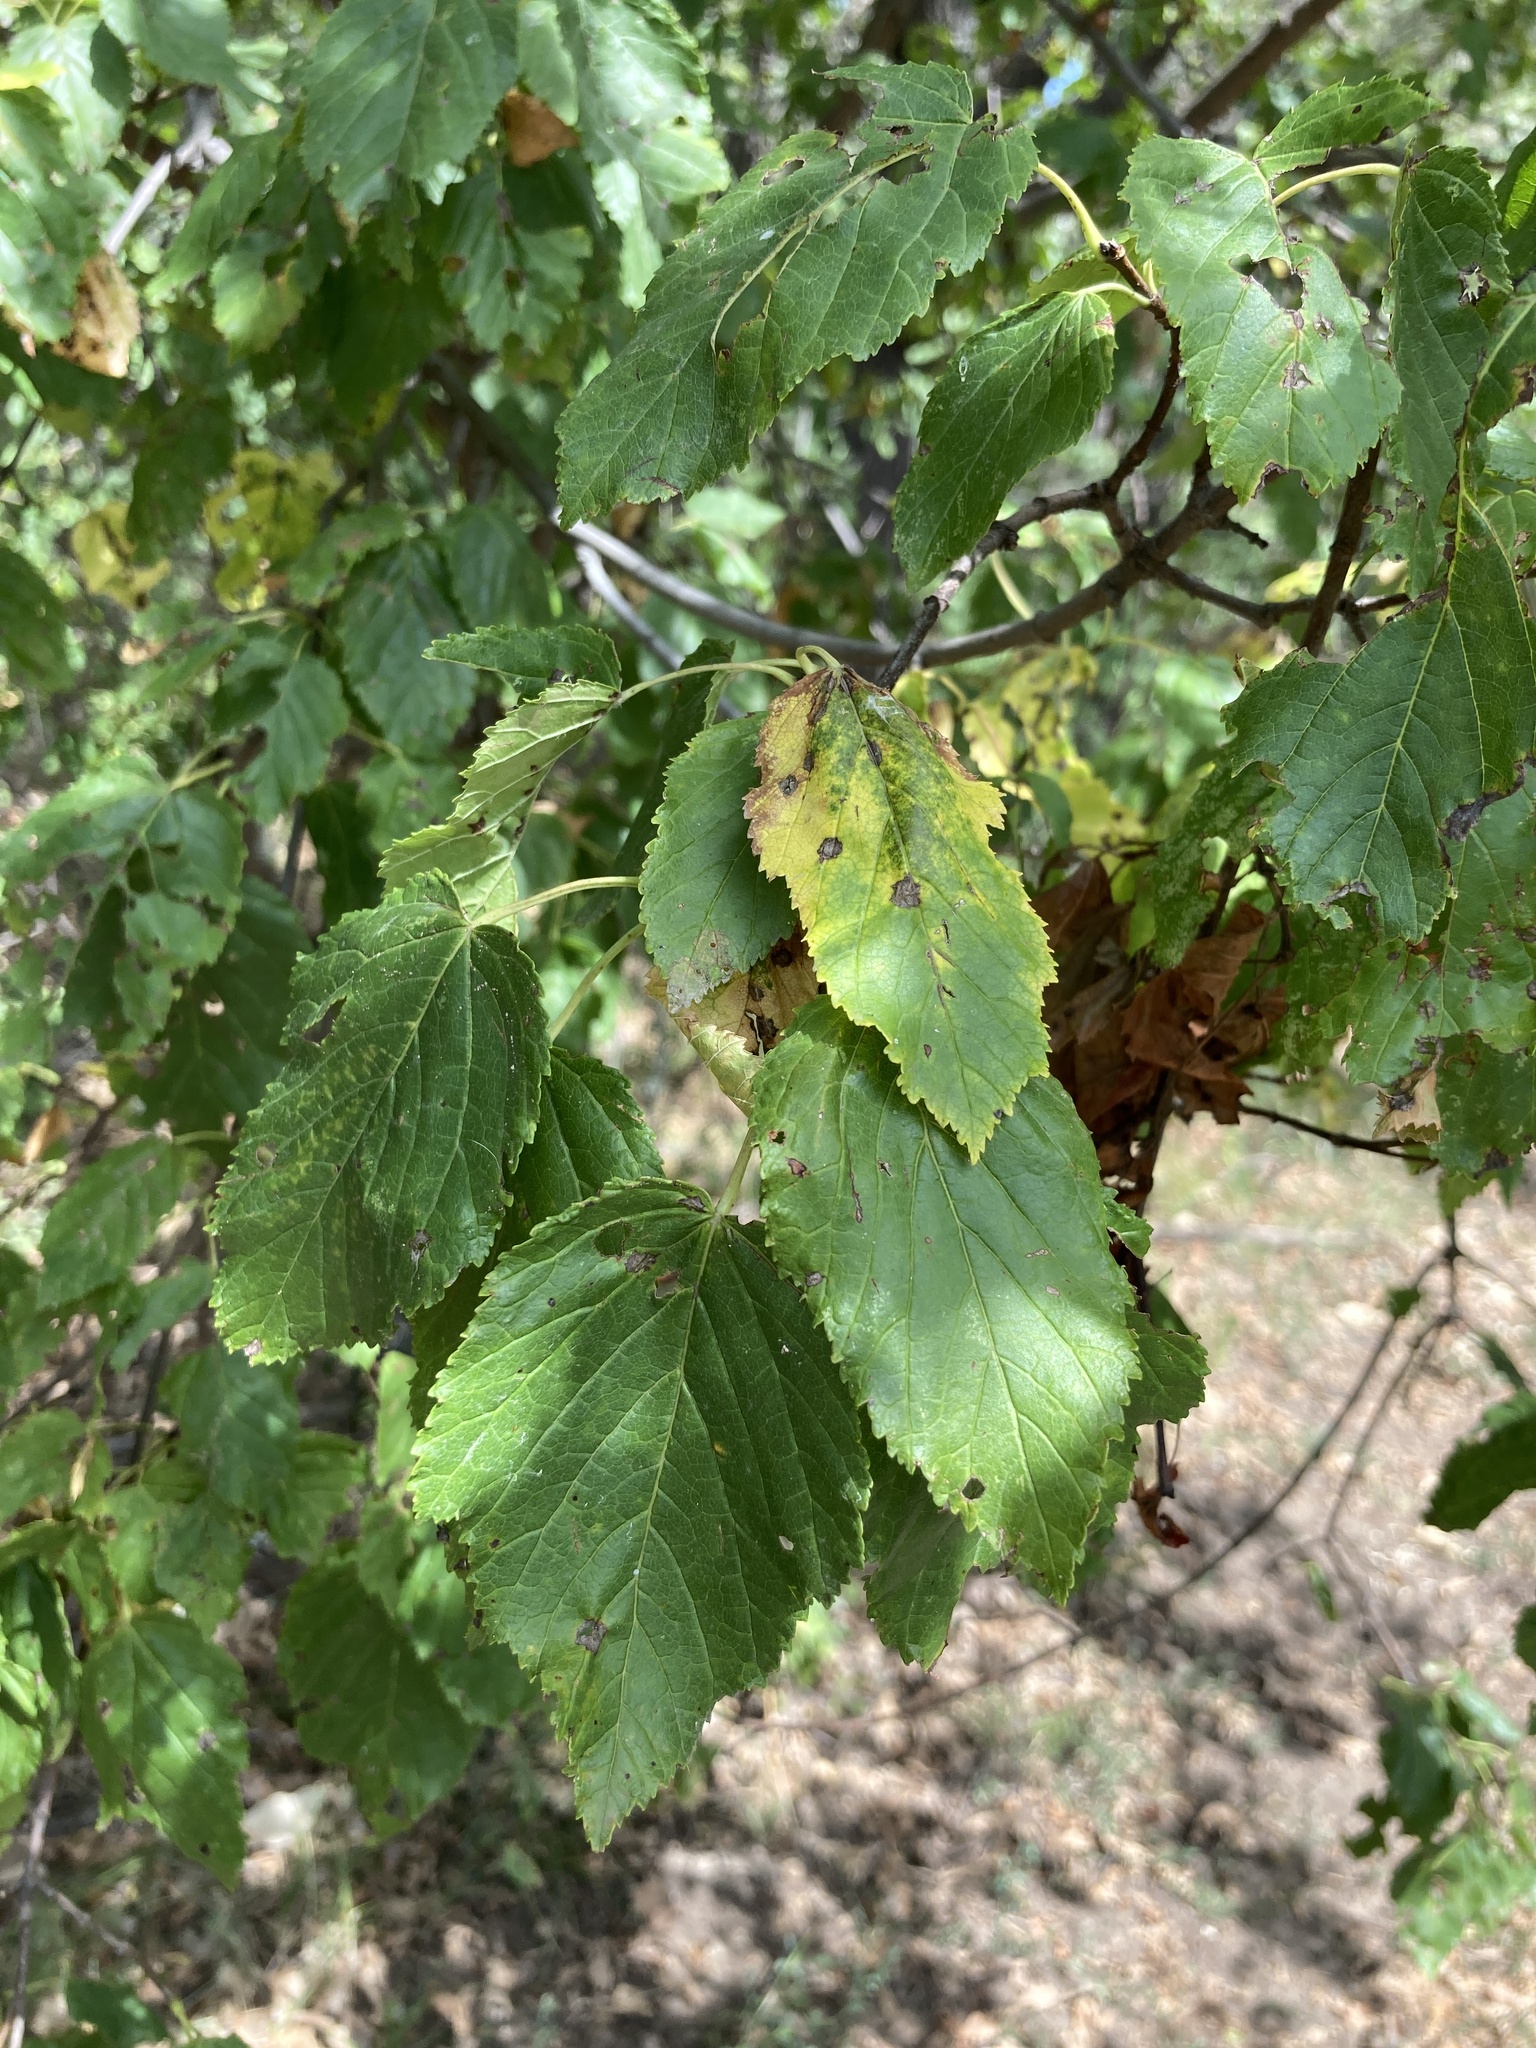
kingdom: Plantae
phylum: Tracheophyta
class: Magnoliopsida
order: Sapindales
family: Sapindaceae
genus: Acer
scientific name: Acer tataricum
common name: Tartar maple
